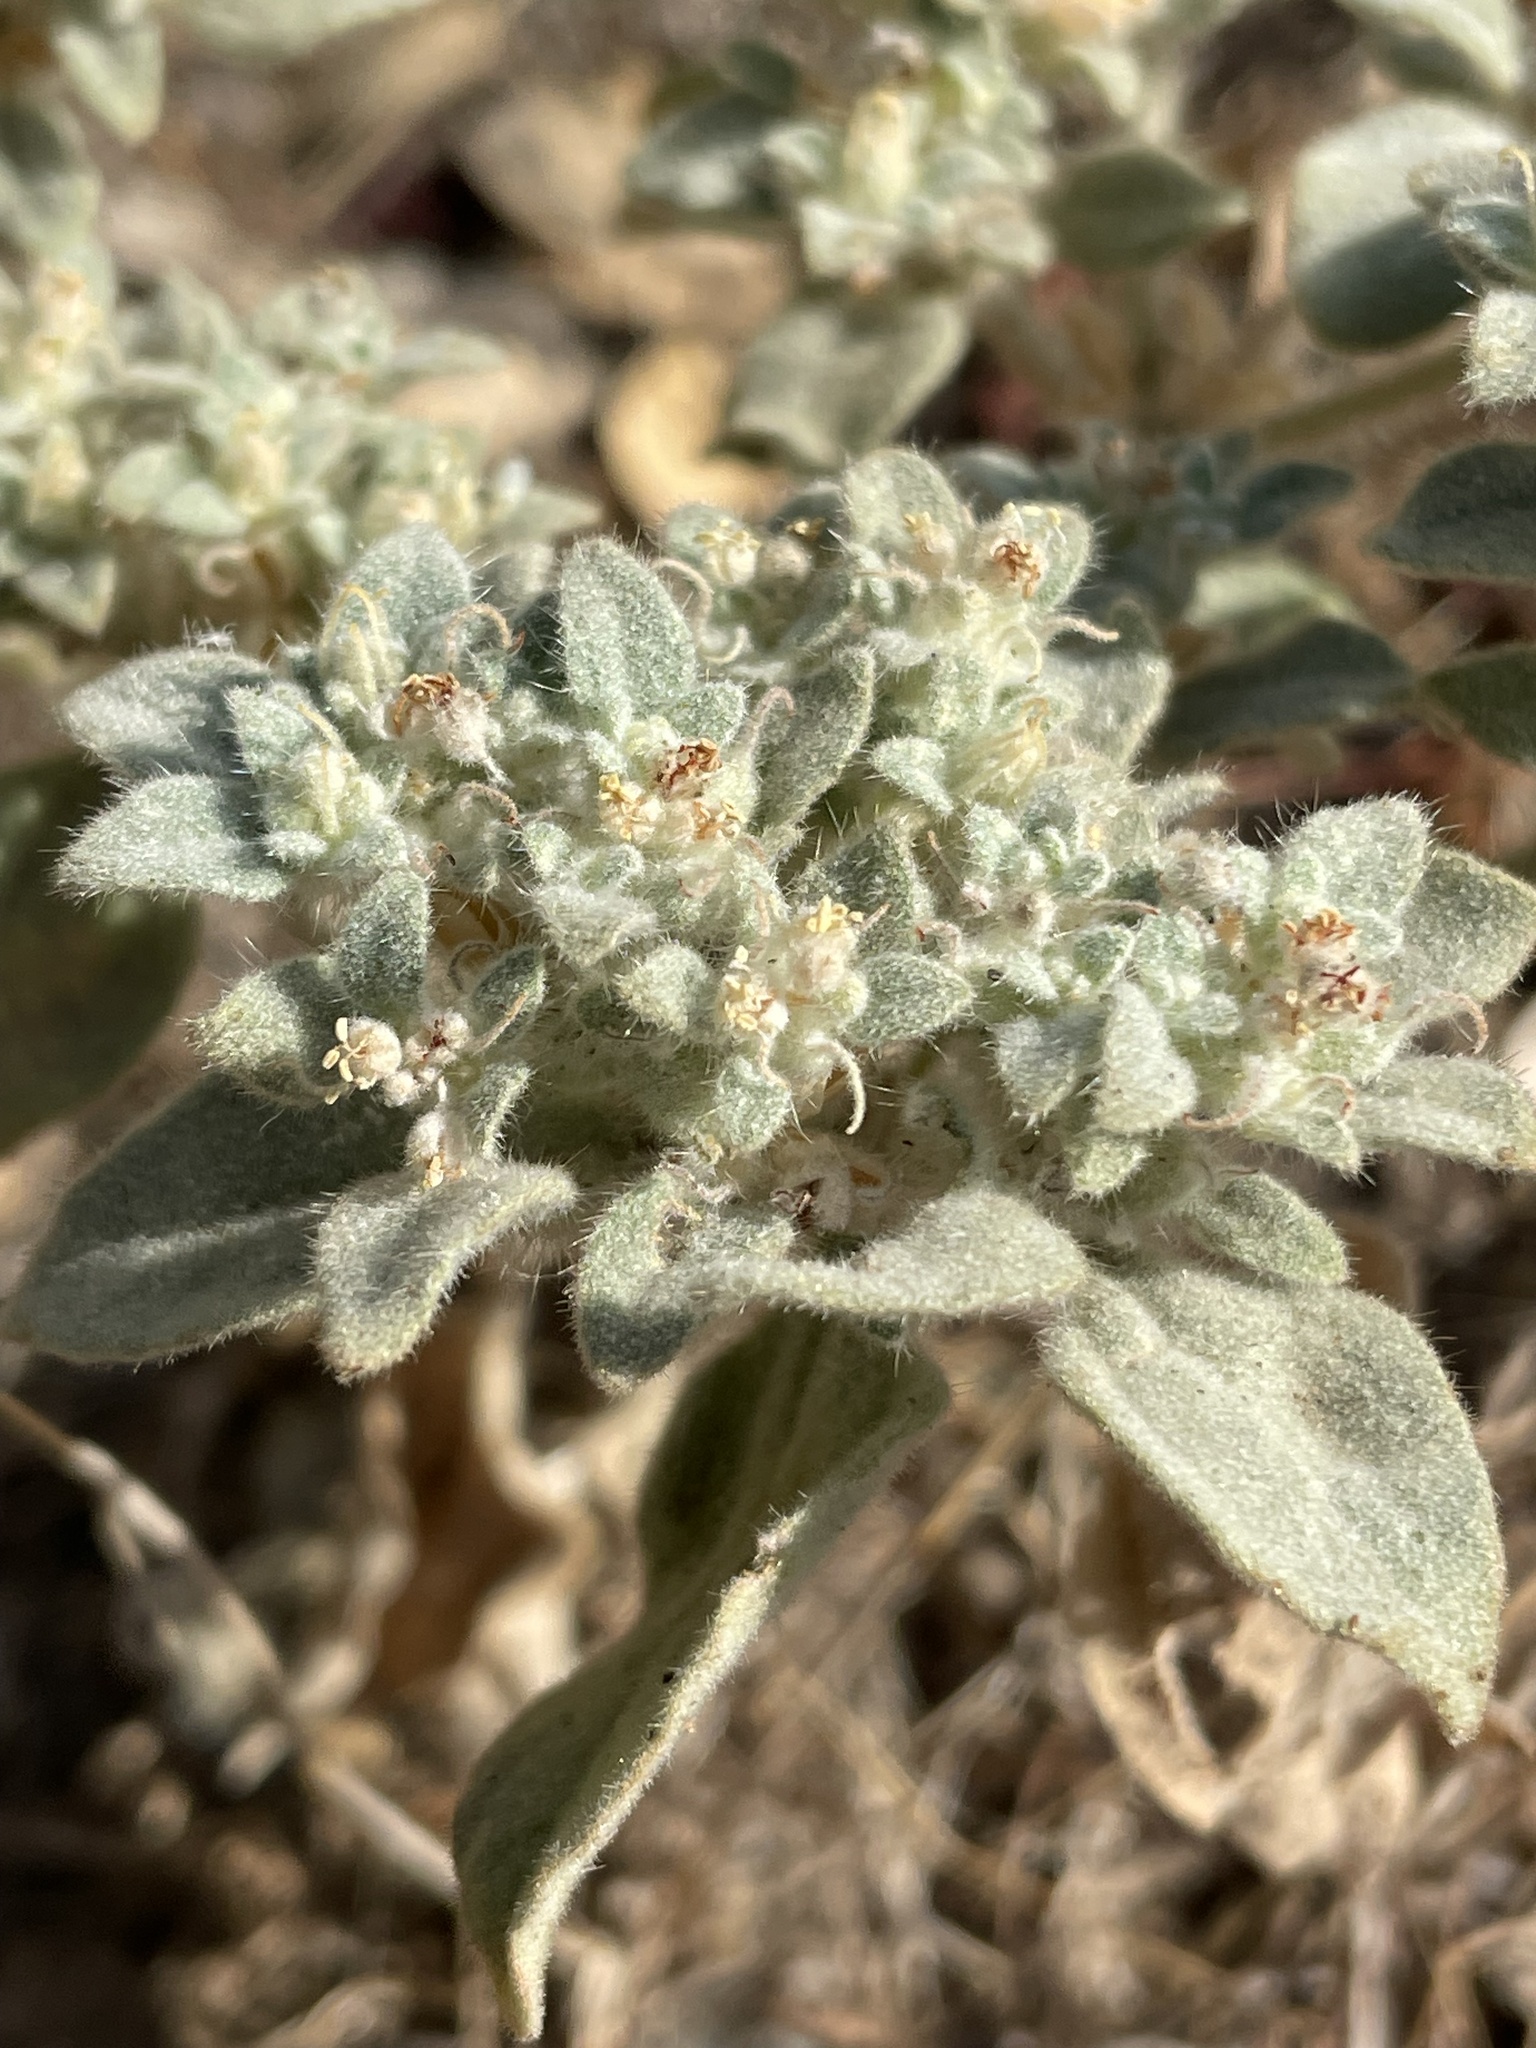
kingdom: Plantae
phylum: Tracheophyta
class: Magnoliopsida
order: Malpighiales
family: Euphorbiaceae
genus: Croton
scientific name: Croton setiger
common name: Dove weed
